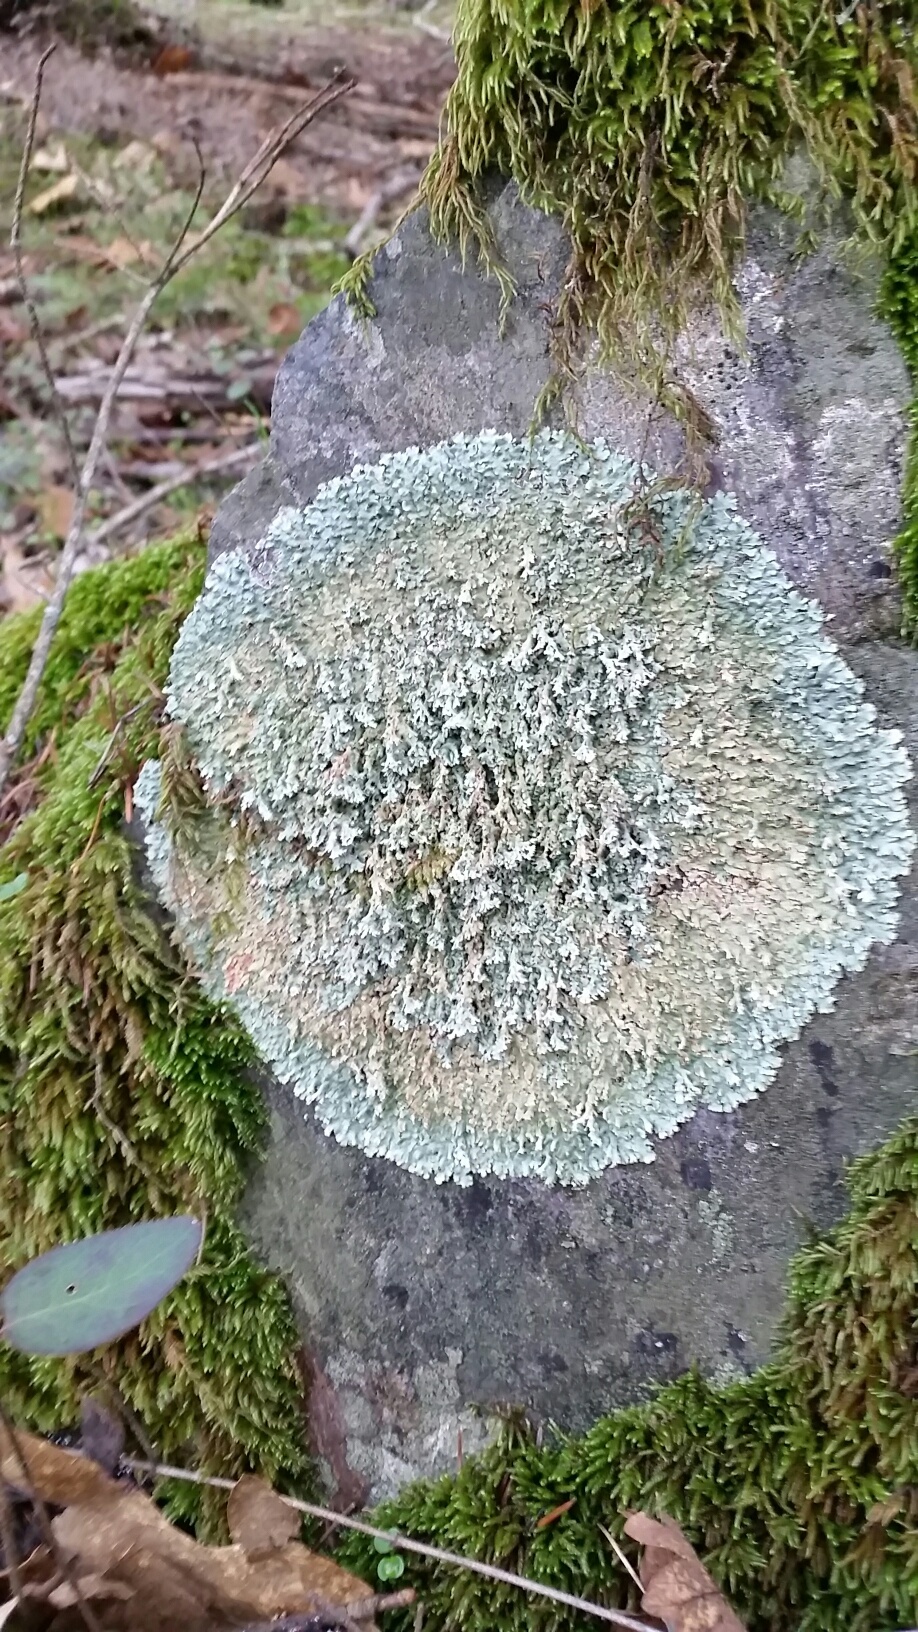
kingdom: Fungi
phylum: Ascomycota
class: Lecanoromycetes
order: Lecanorales
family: Parmeliaceae
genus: Flavoparmelia
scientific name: Flavoparmelia baltimorensis
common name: Rock greenshield
